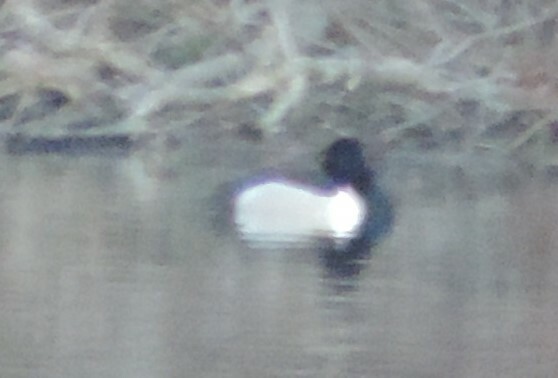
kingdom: Animalia
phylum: Chordata
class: Aves
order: Anseriformes
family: Anatidae
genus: Aythya
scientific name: Aythya collaris
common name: Ring-necked duck
